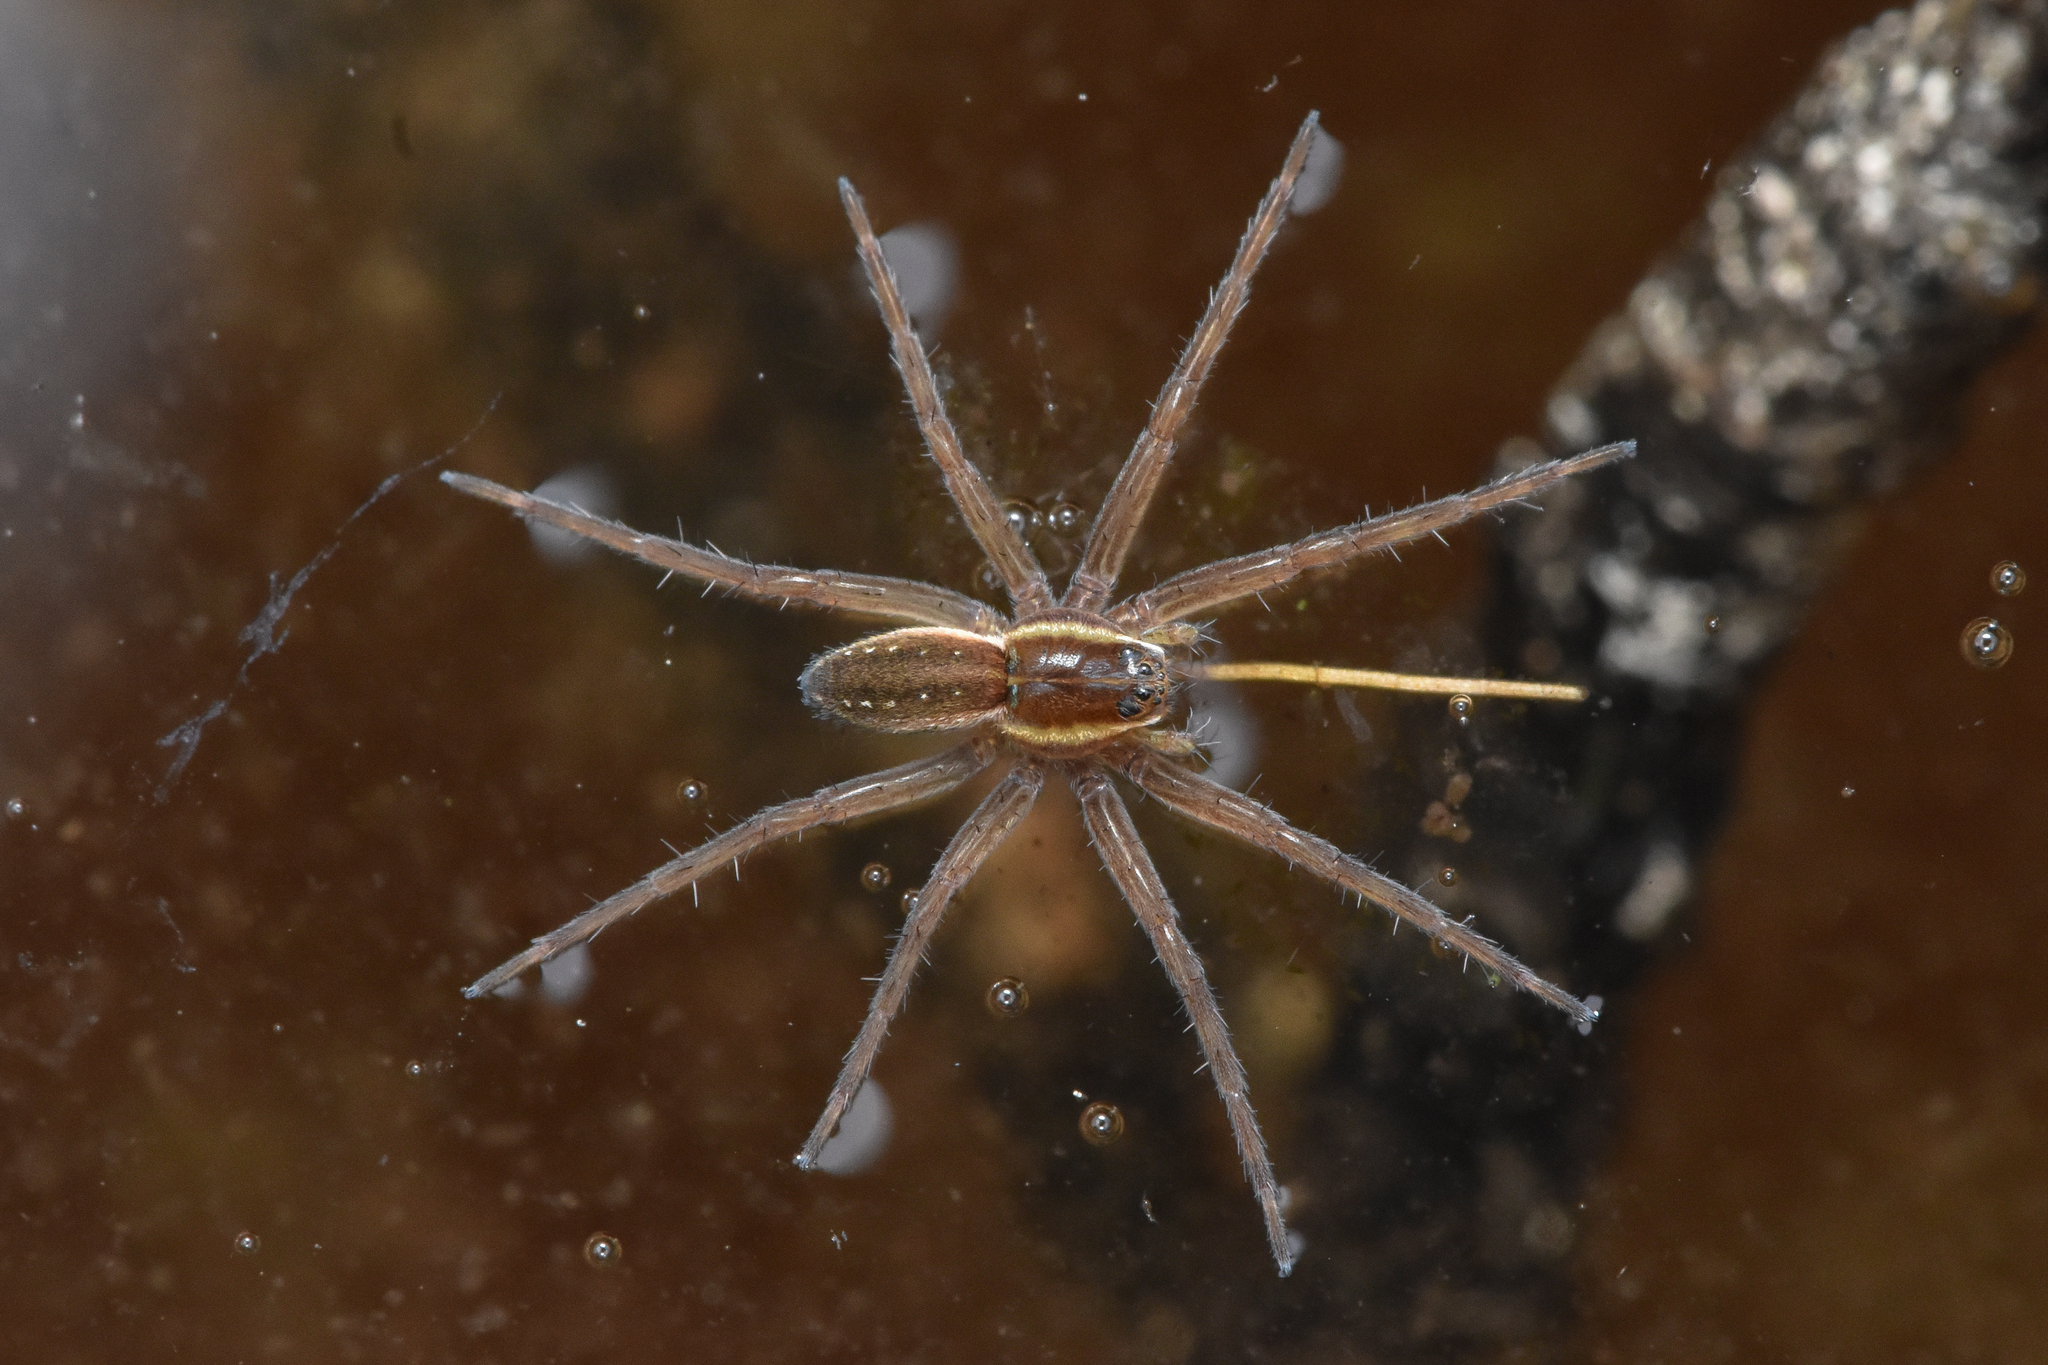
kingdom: Animalia
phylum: Arthropoda
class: Arachnida
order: Araneae
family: Pisauridae
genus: Dolomedes
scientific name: Dolomedes triton
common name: Six-spotted fishing spider
